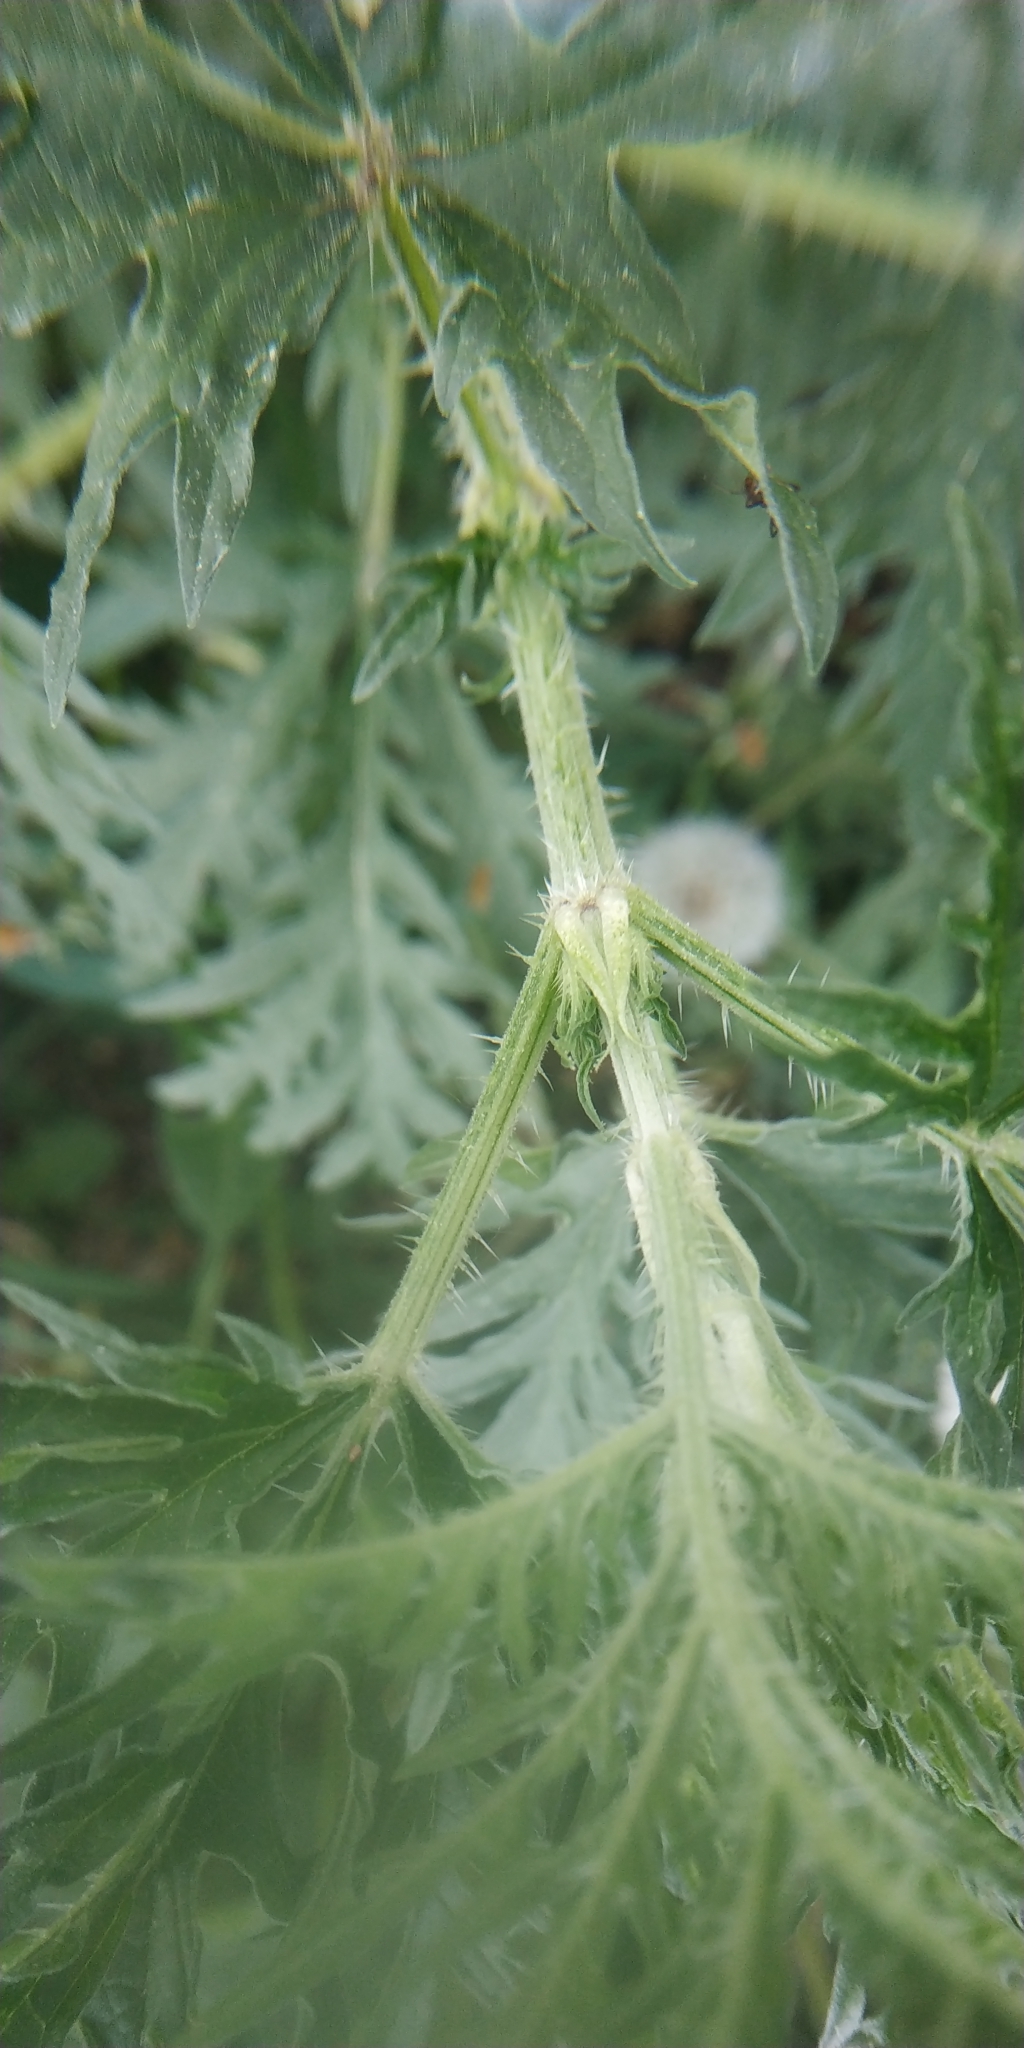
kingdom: Plantae
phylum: Tracheophyta
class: Magnoliopsida
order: Rosales
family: Urticaceae
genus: Urtica
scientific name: Urtica cannabina
